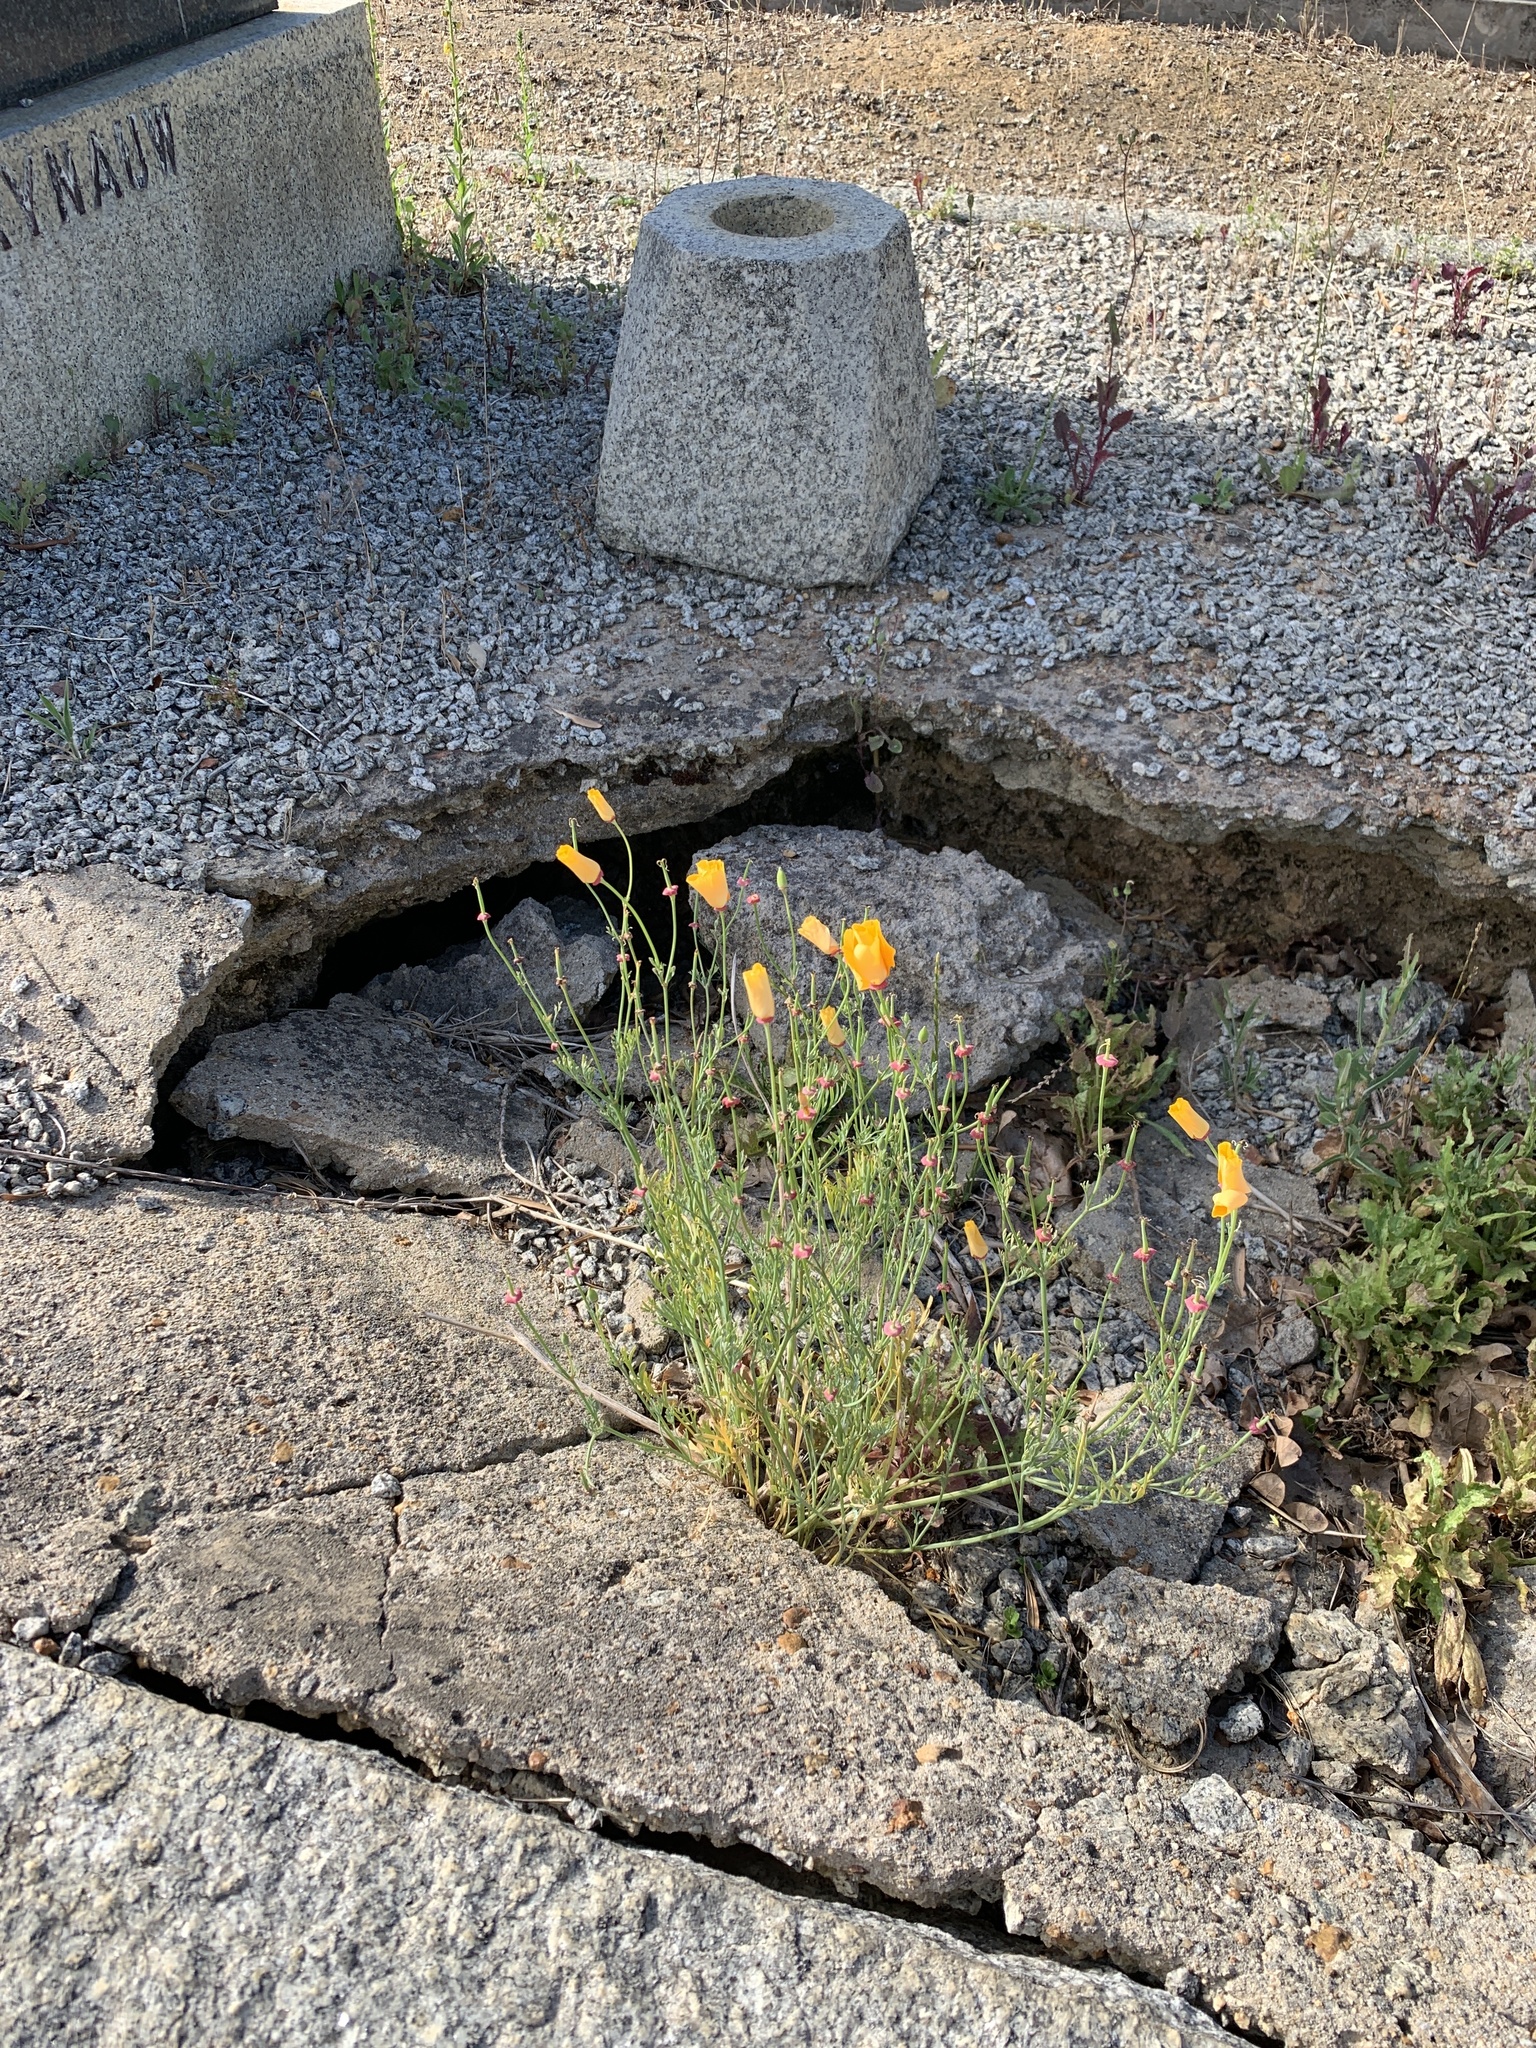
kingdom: Plantae
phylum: Tracheophyta
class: Magnoliopsida
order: Ranunculales
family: Papaveraceae
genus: Eschscholzia
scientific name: Eschscholzia californica
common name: California poppy
